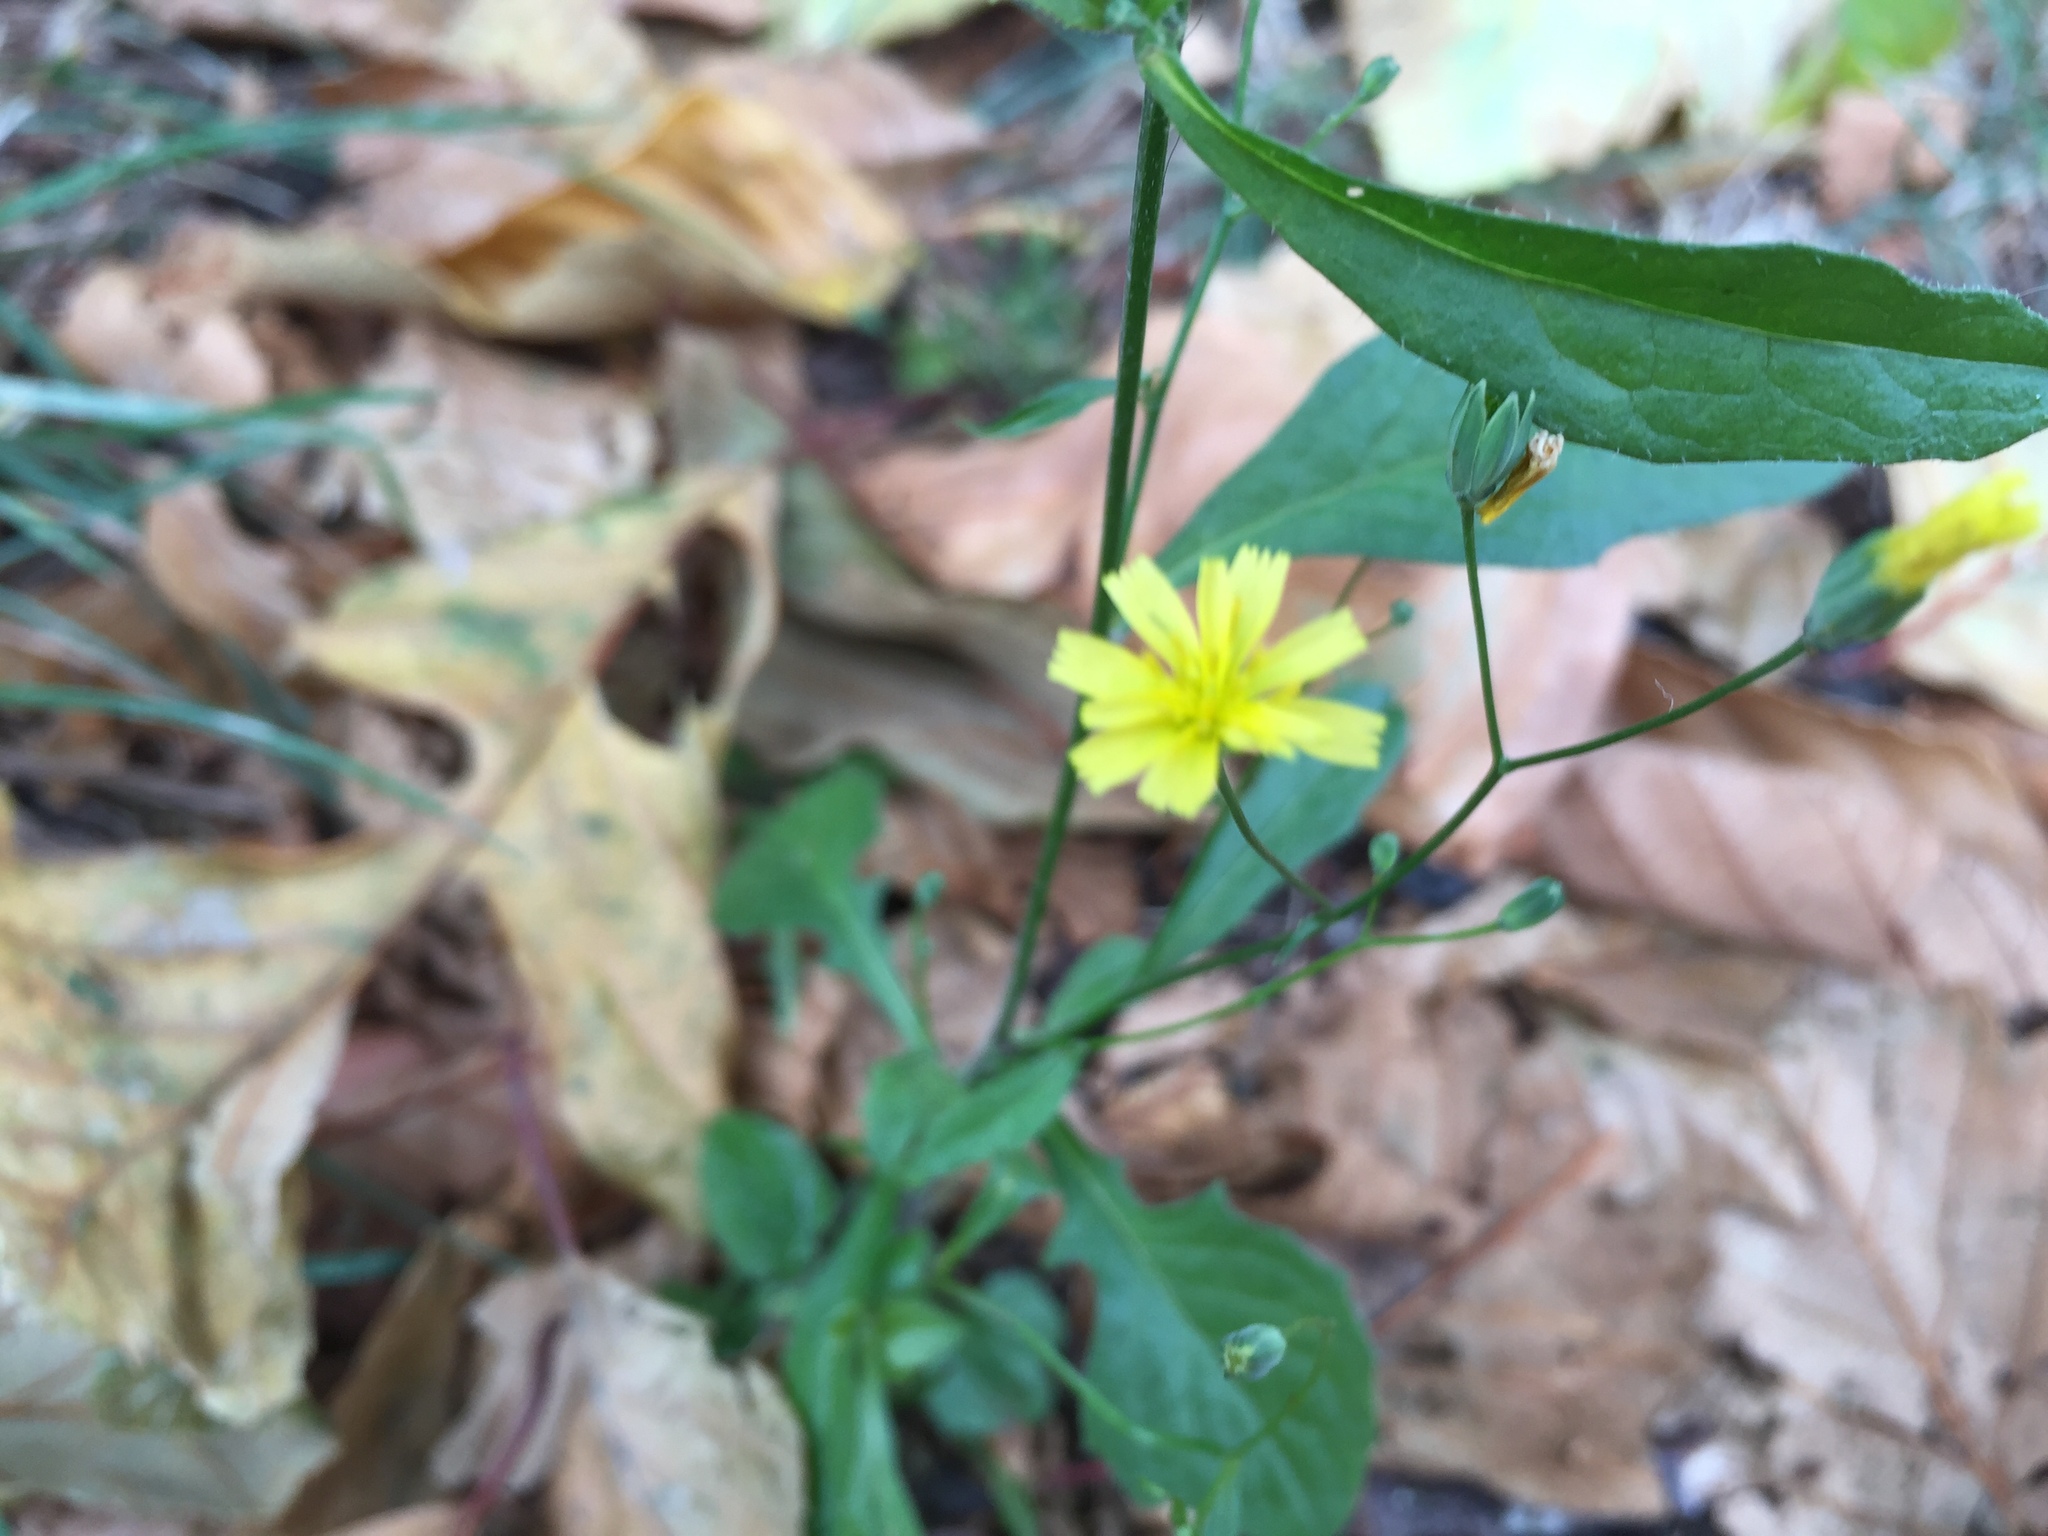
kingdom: Plantae
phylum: Tracheophyta
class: Magnoliopsida
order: Asterales
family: Asteraceae
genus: Lapsana
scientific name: Lapsana communis
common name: Nipplewort
